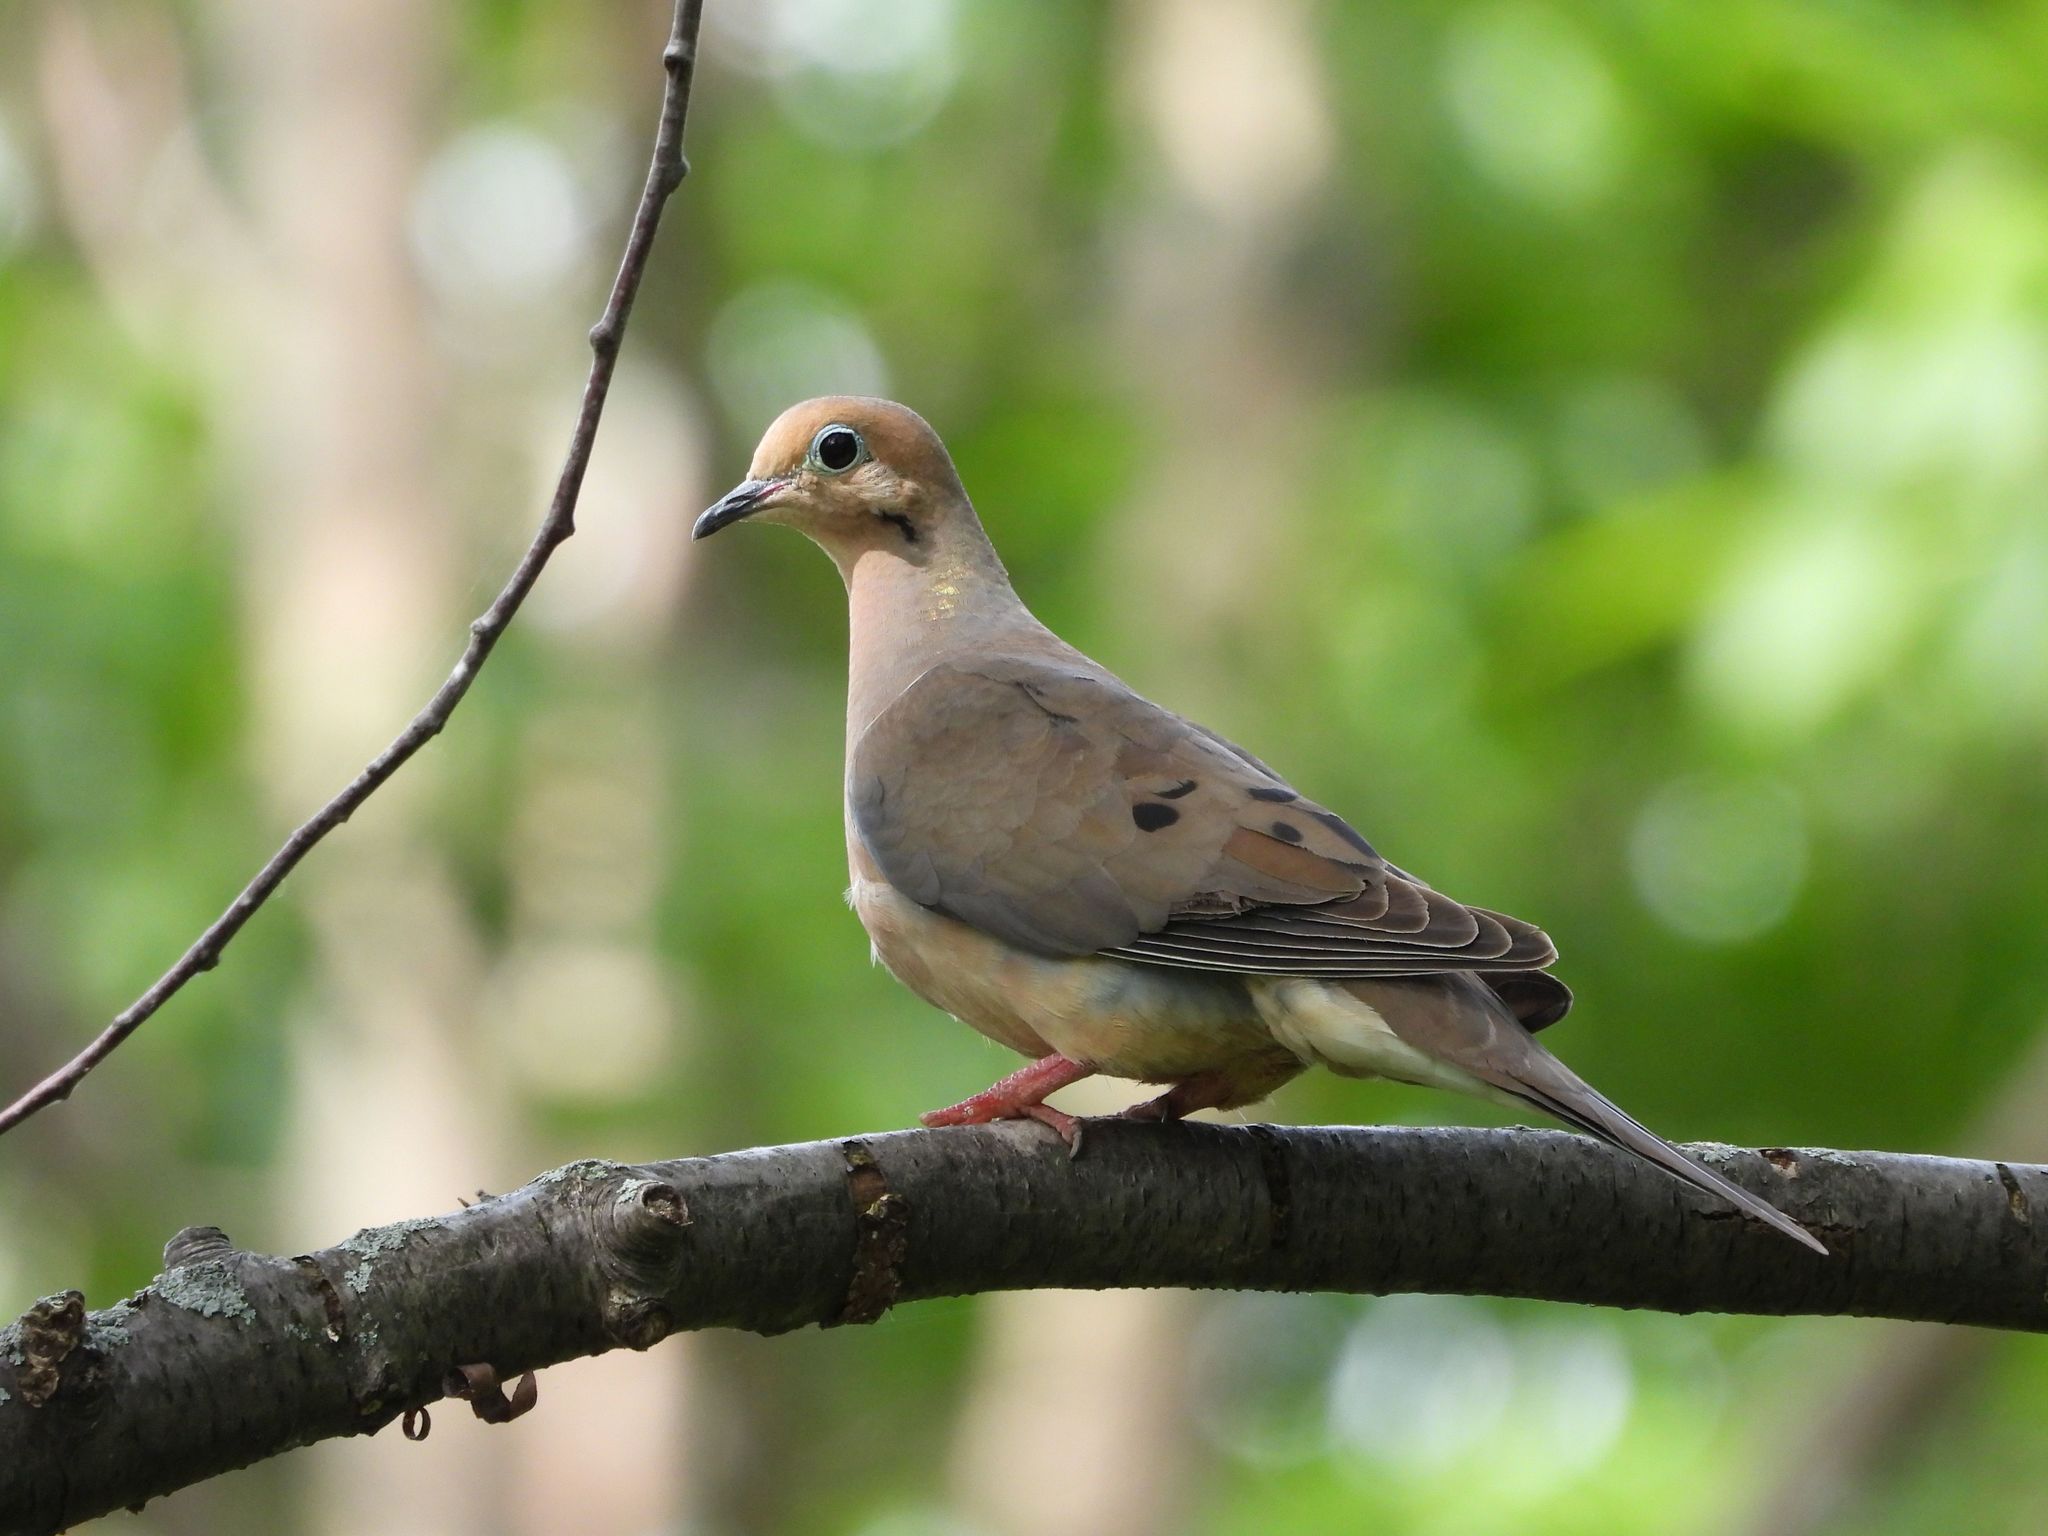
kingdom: Animalia
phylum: Chordata
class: Aves
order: Columbiformes
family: Columbidae
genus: Zenaida
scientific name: Zenaida macroura
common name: Mourning dove
